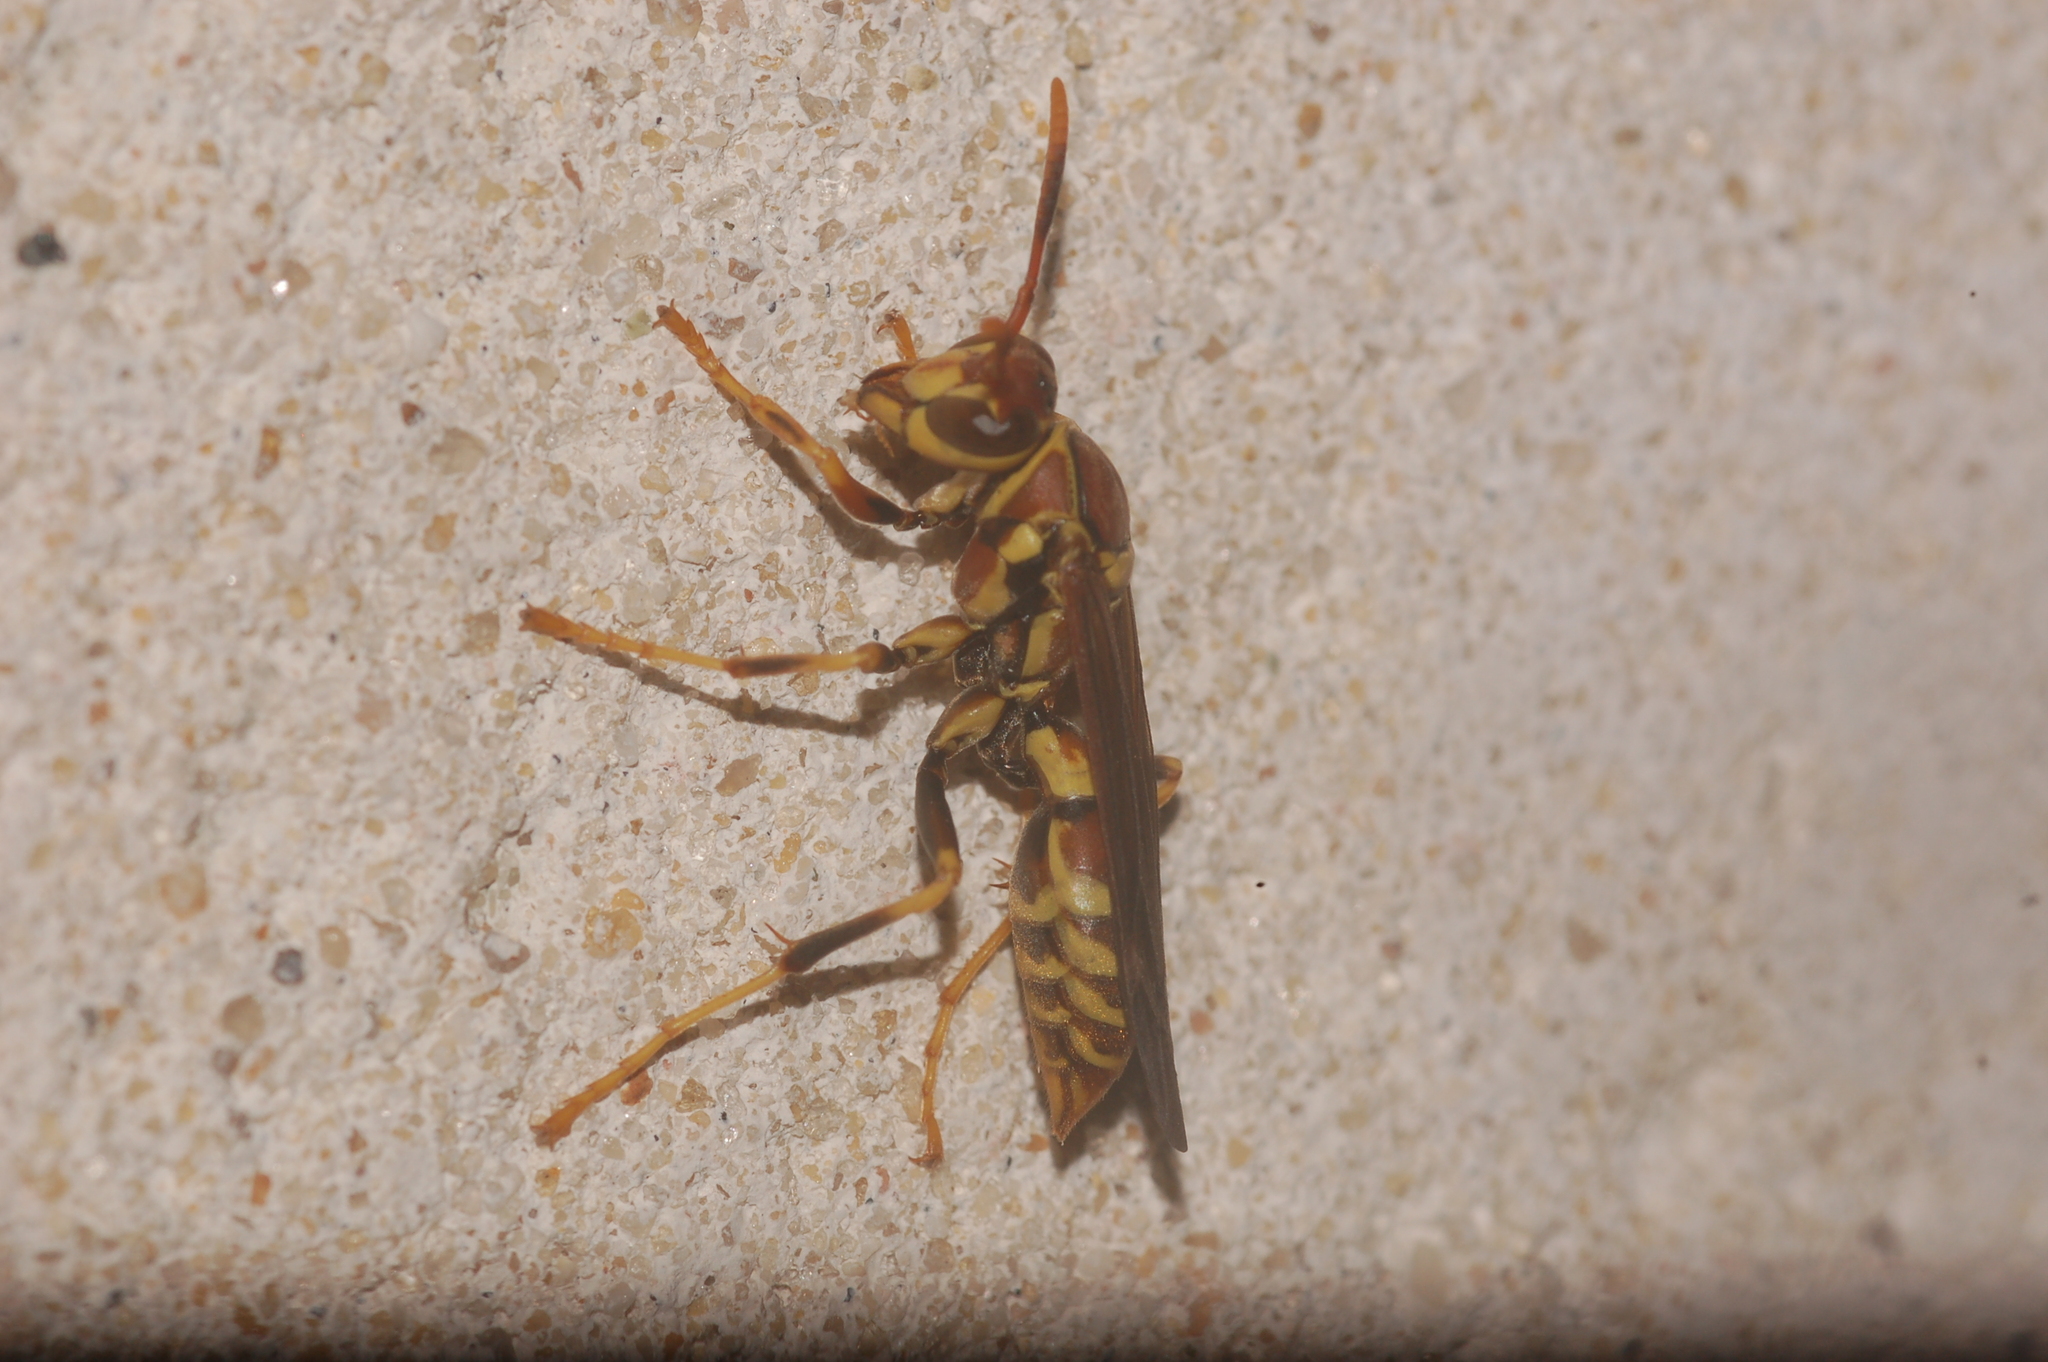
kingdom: Animalia
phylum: Arthropoda
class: Insecta
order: Hymenoptera
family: Eumenidae
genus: Polistes
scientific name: Polistes exclamans
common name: Paper wasp
